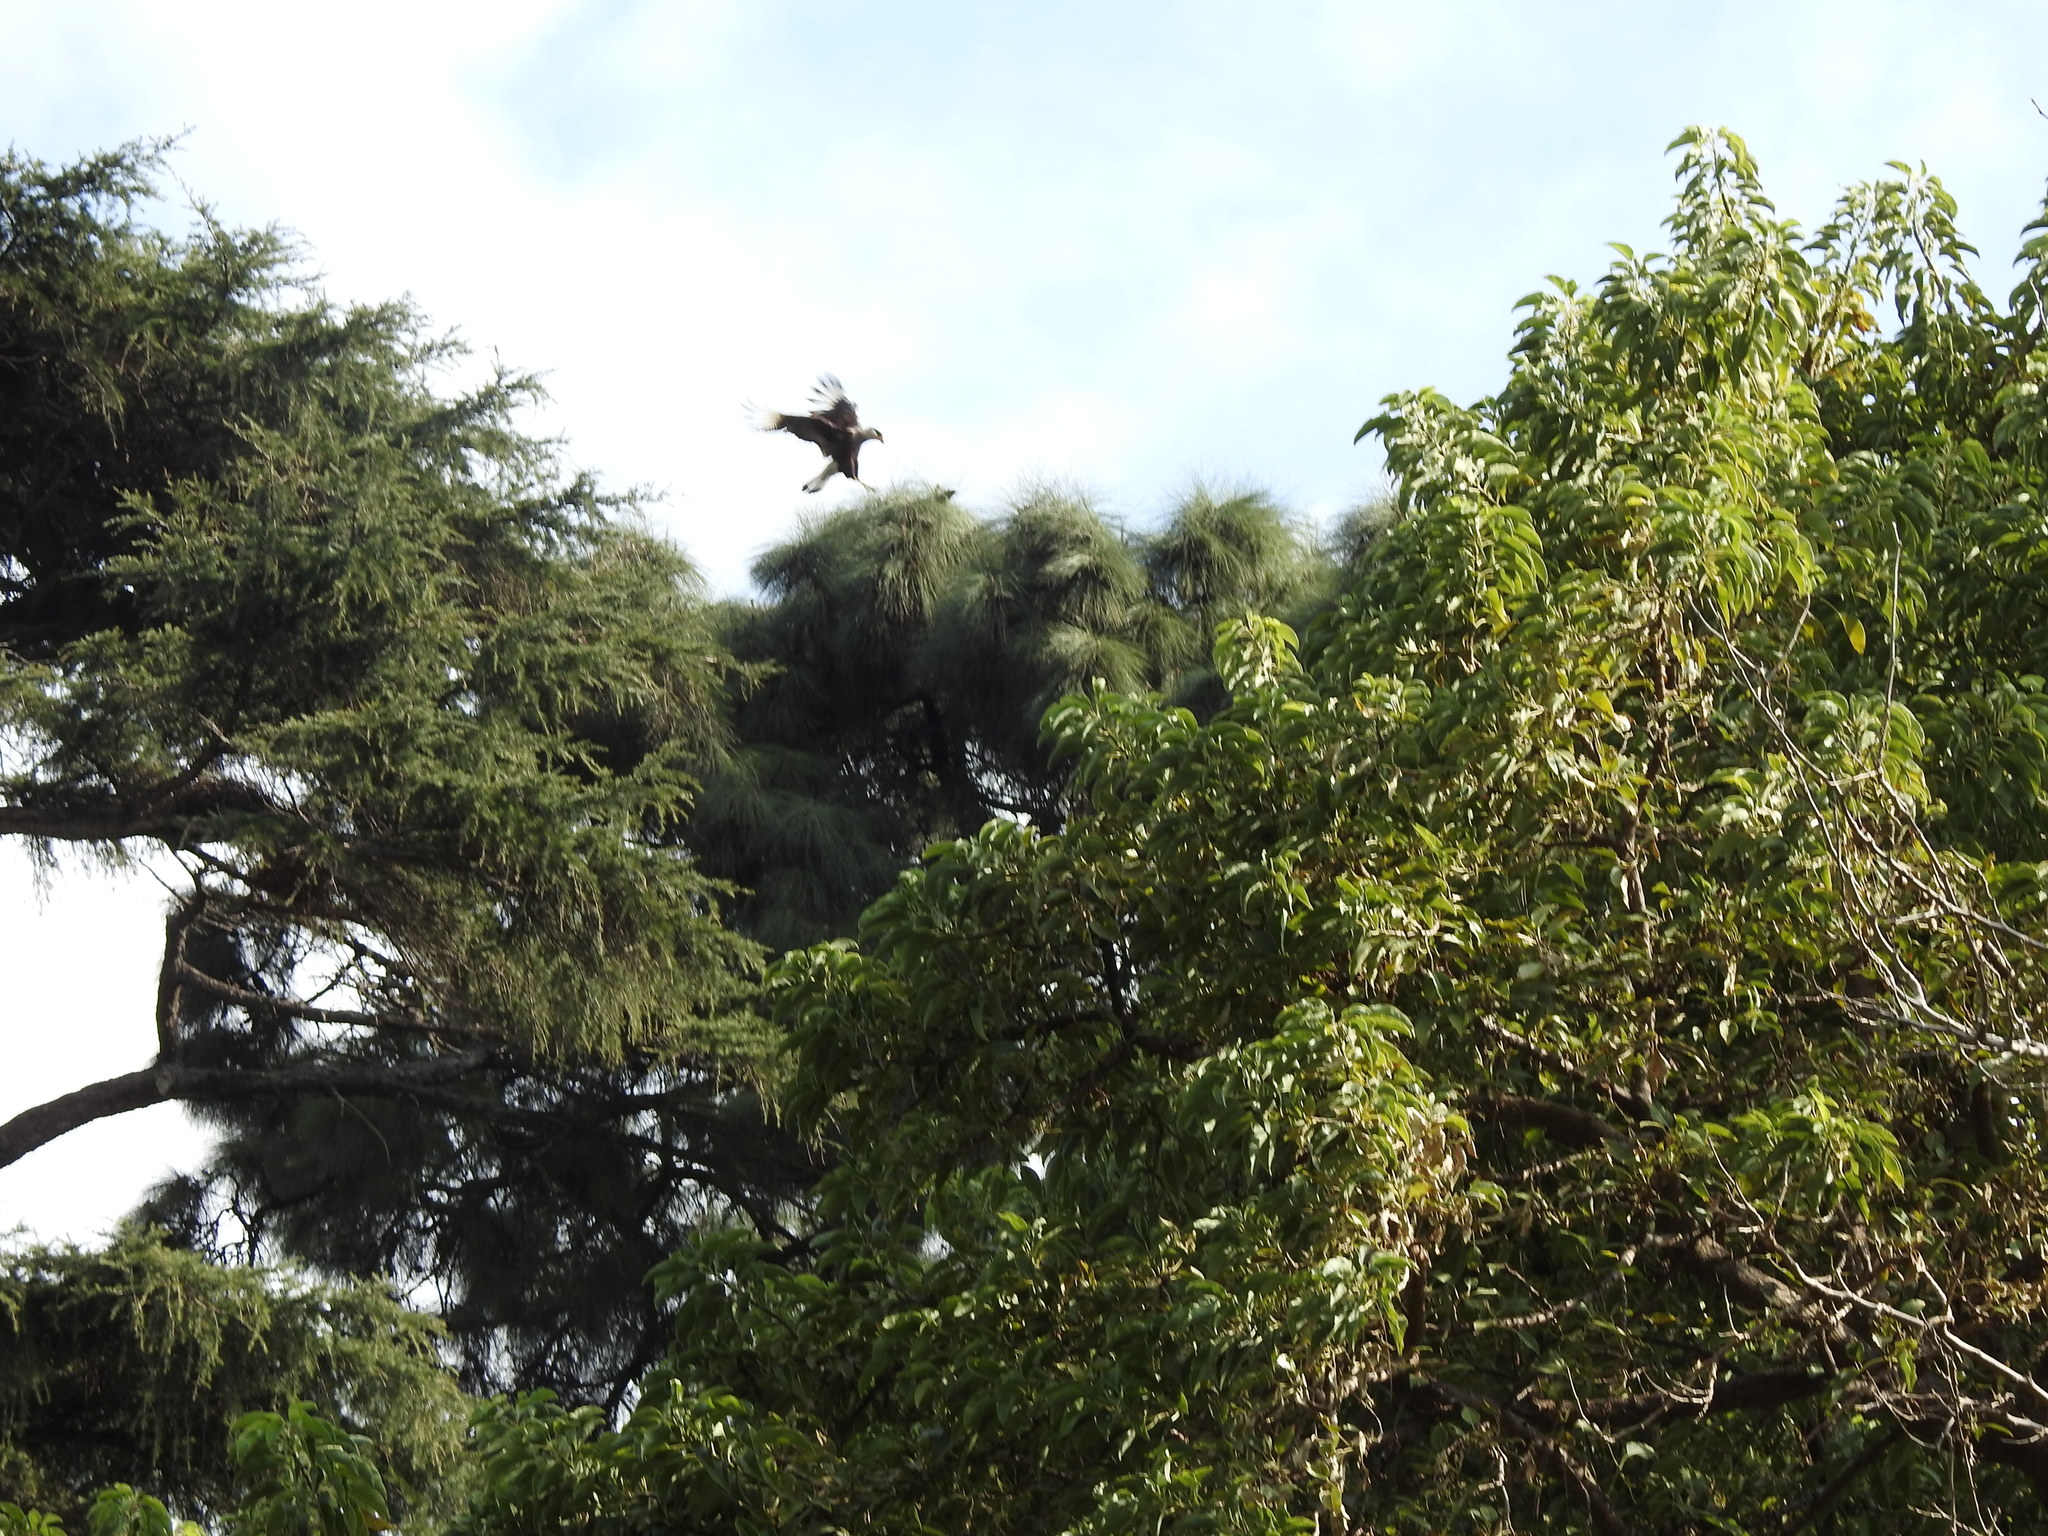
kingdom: Animalia
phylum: Chordata
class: Aves
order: Falconiformes
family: Falconidae
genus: Caracara
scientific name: Caracara plancus
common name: Southern caracara
